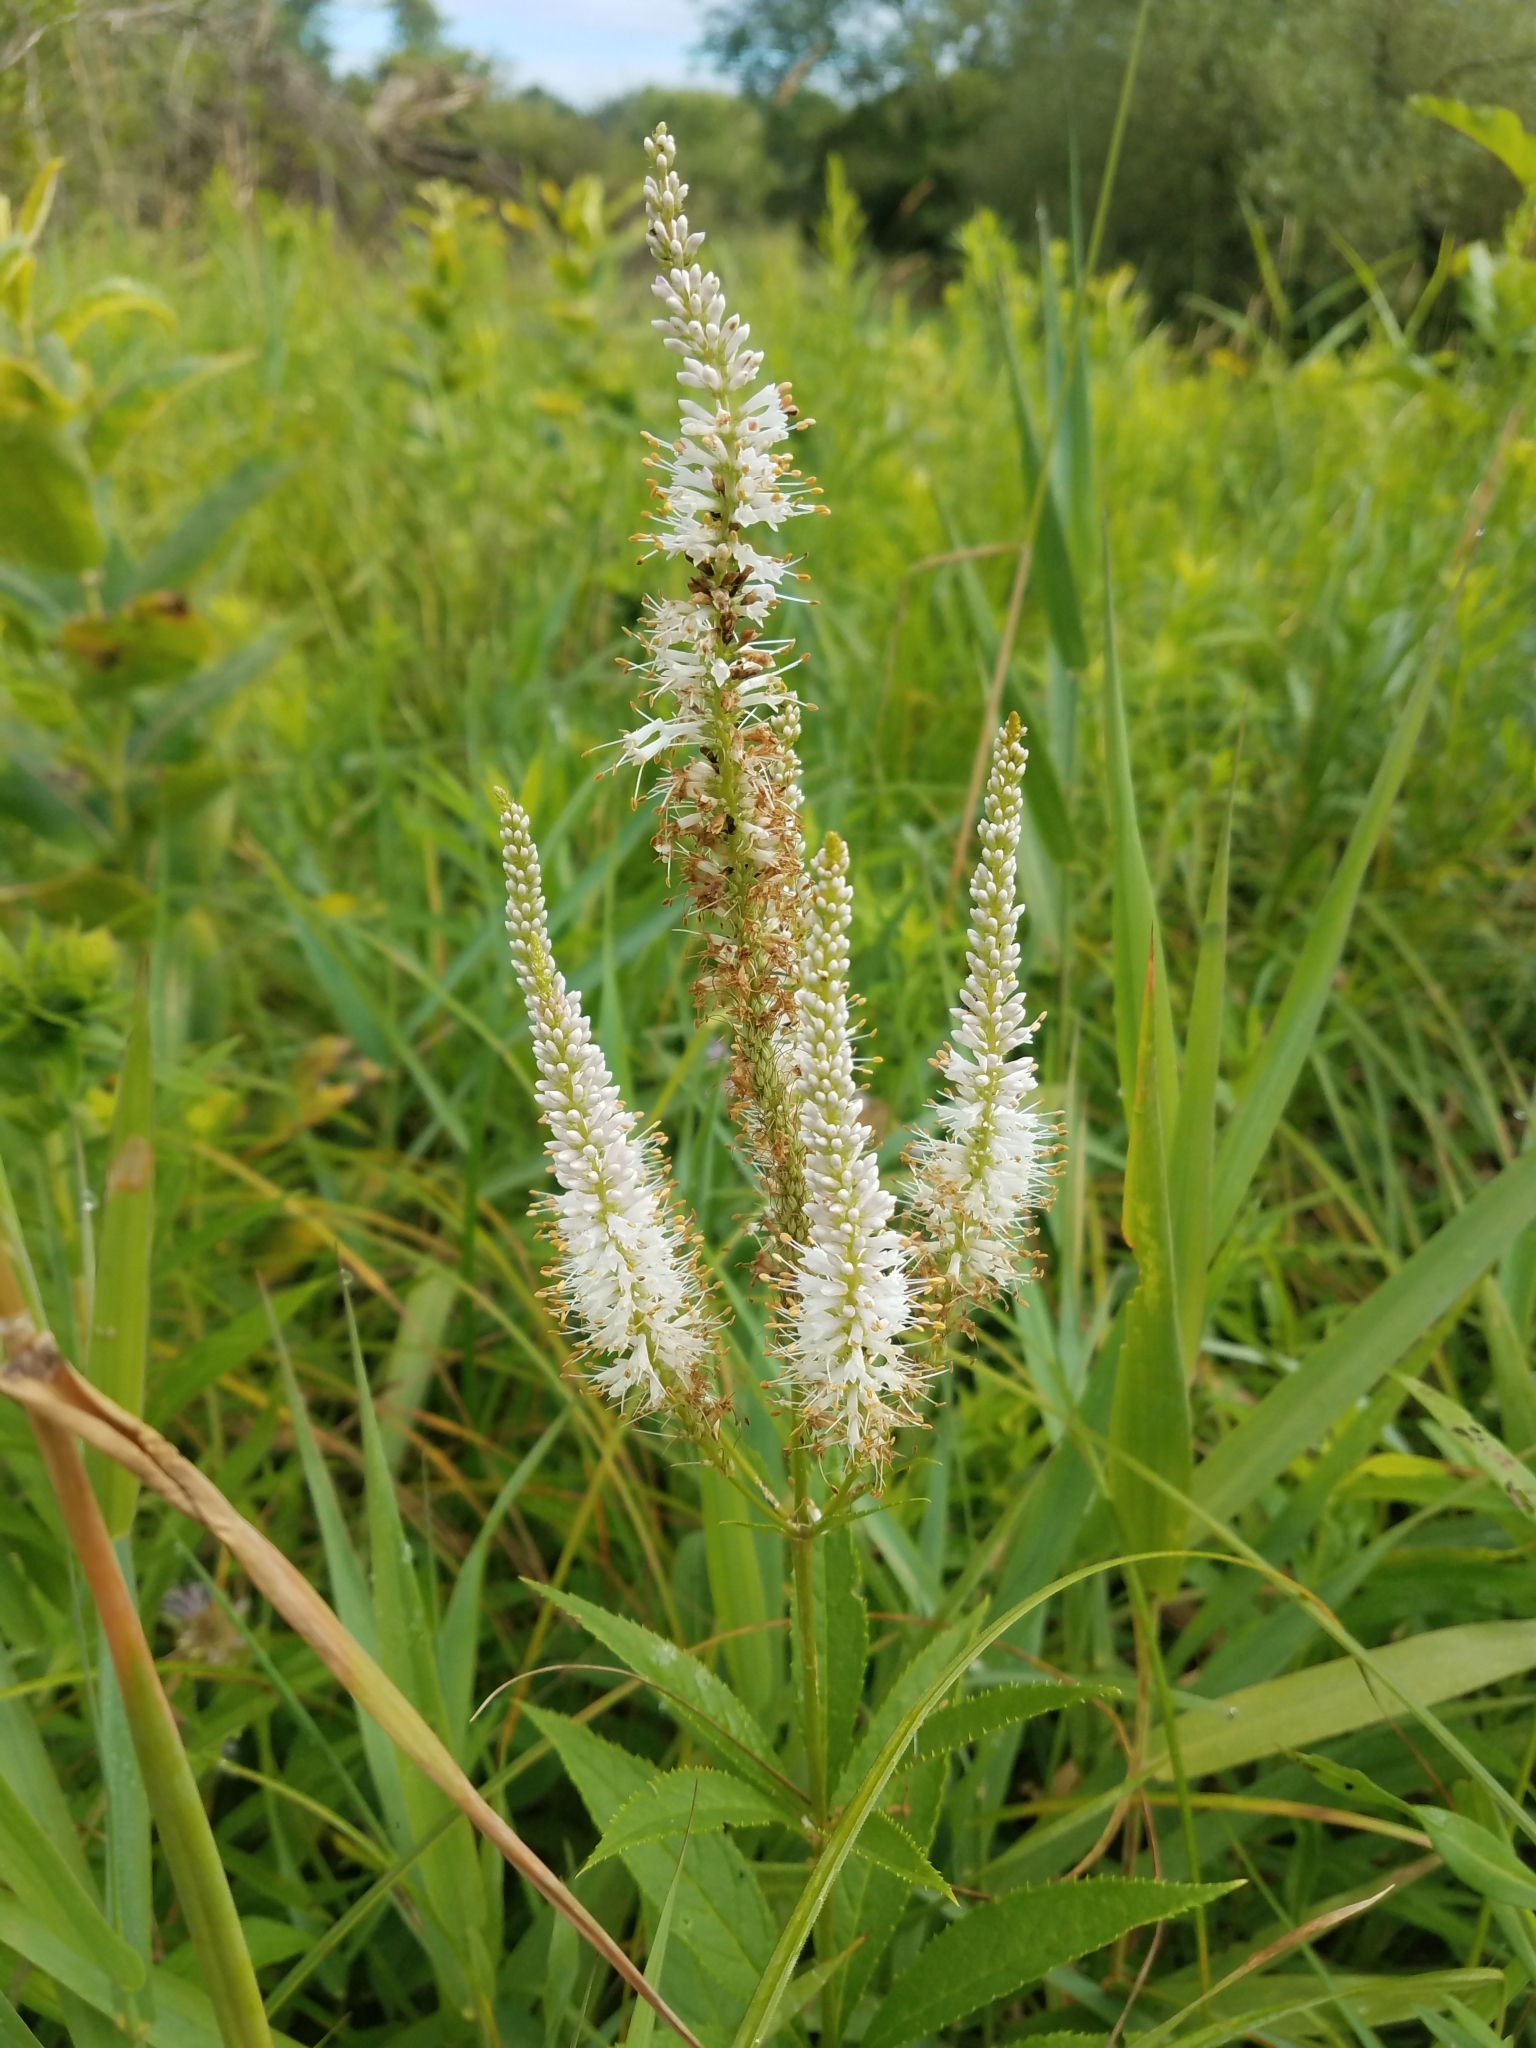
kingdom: Plantae
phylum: Tracheophyta
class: Magnoliopsida
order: Lamiales
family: Plantaginaceae
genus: Veronicastrum
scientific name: Veronicastrum virginicum
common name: Blackroot
